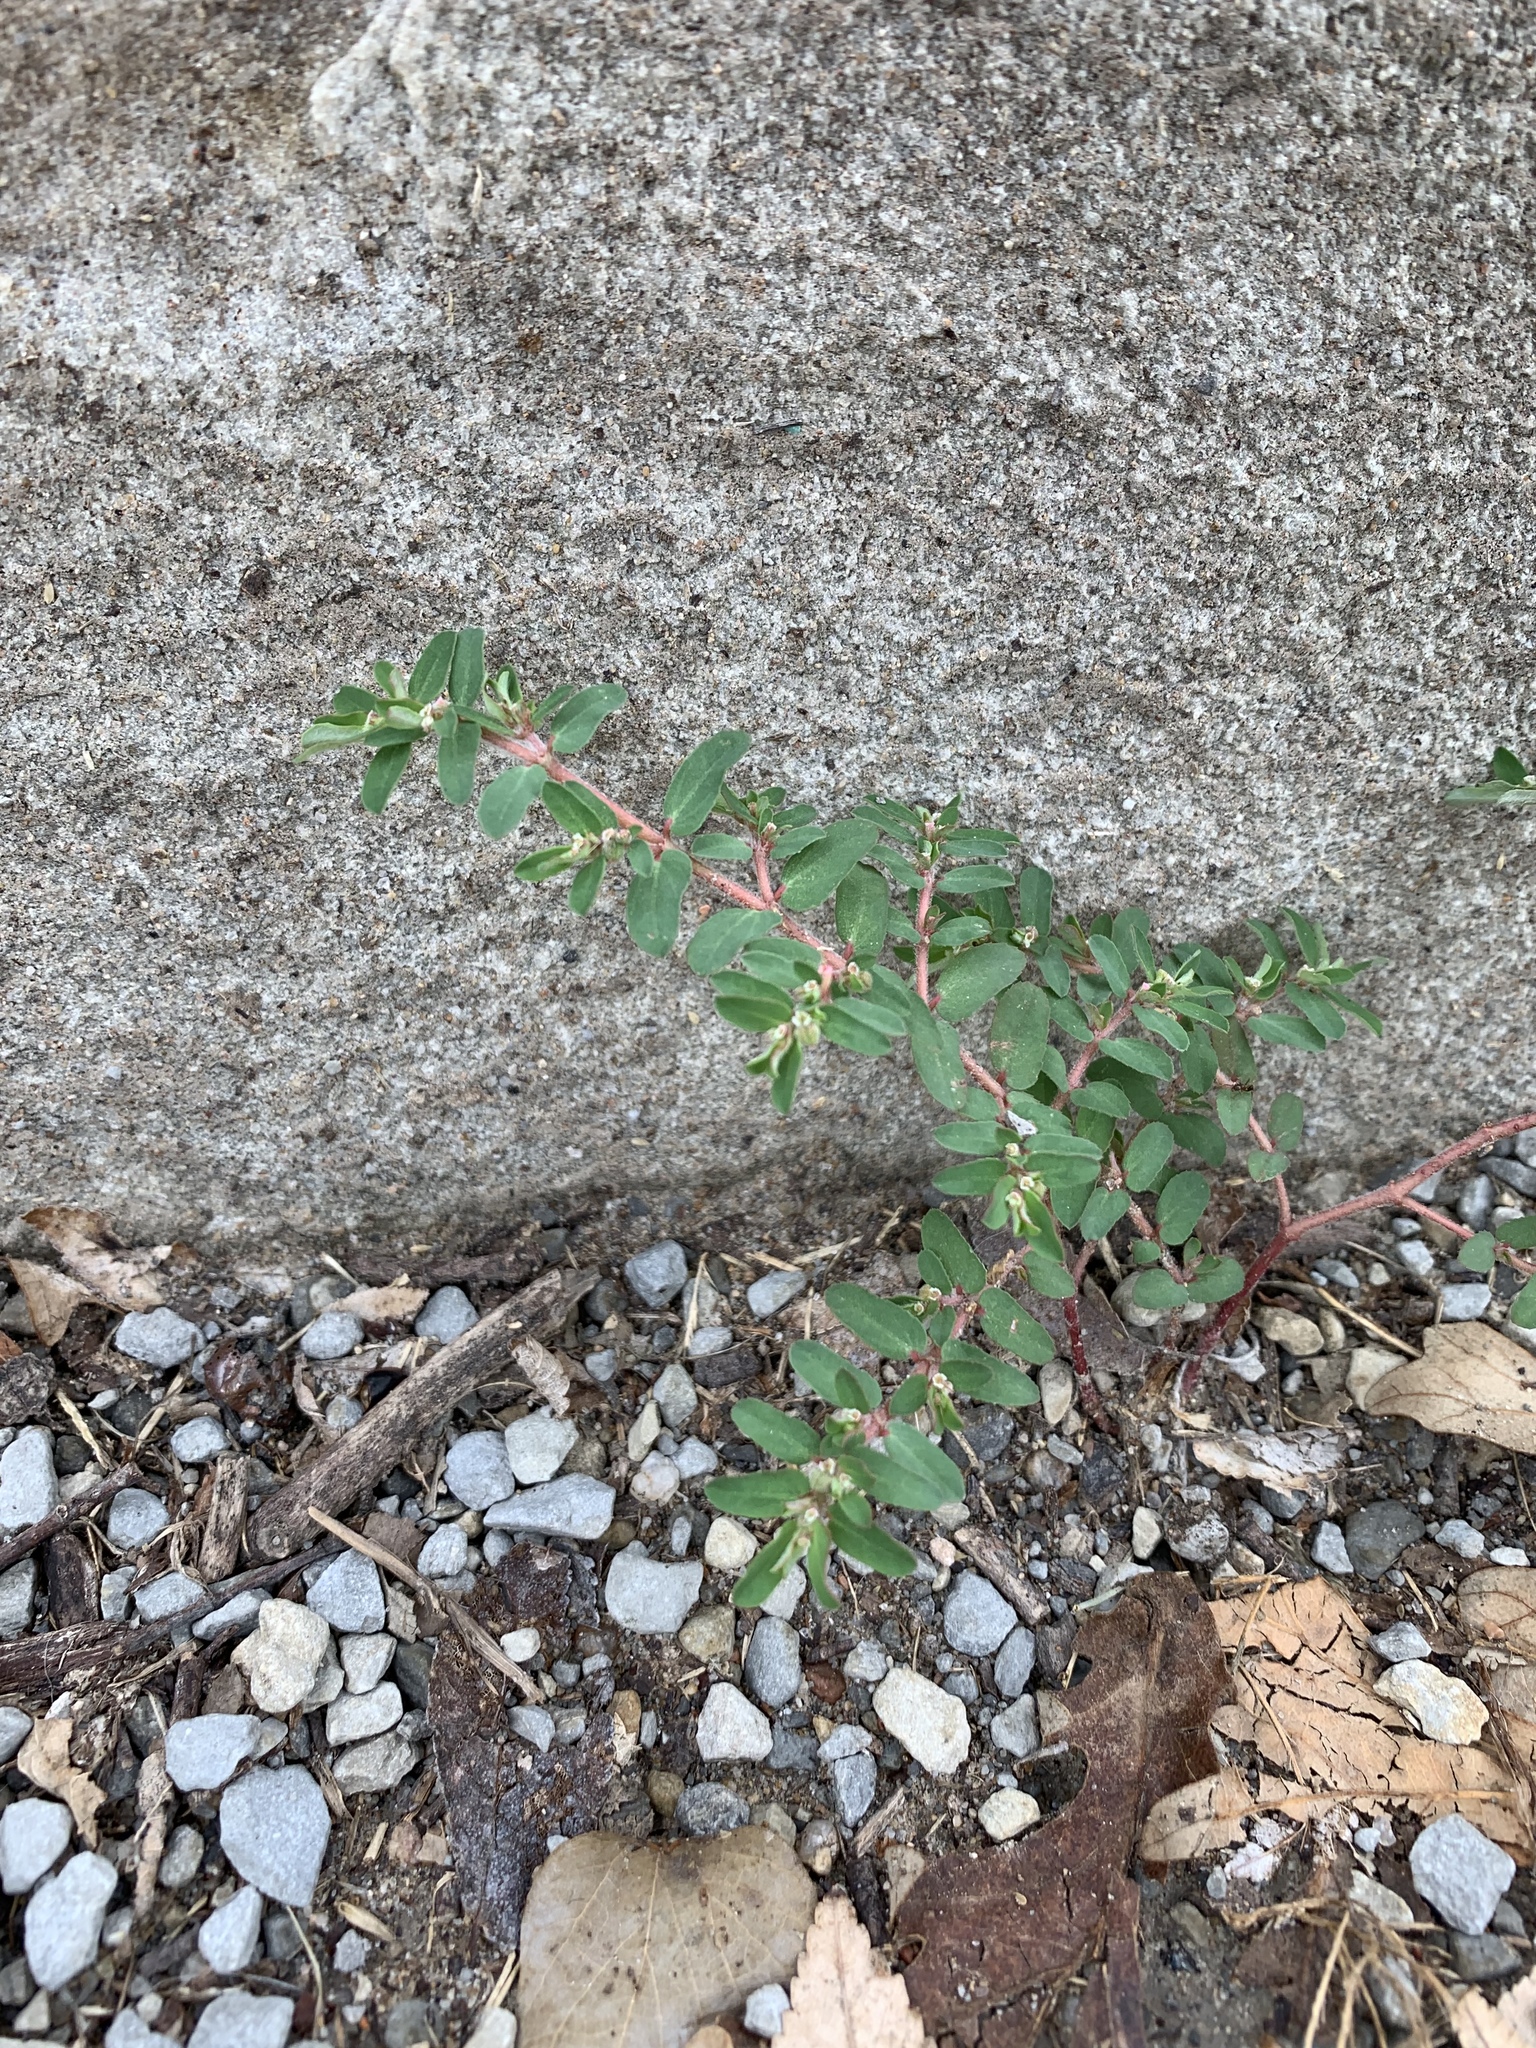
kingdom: Plantae
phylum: Tracheophyta
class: Magnoliopsida
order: Malpighiales
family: Euphorbiaceae
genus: Euphorbia
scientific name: Euphorbia maculata
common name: Spotted spurge
